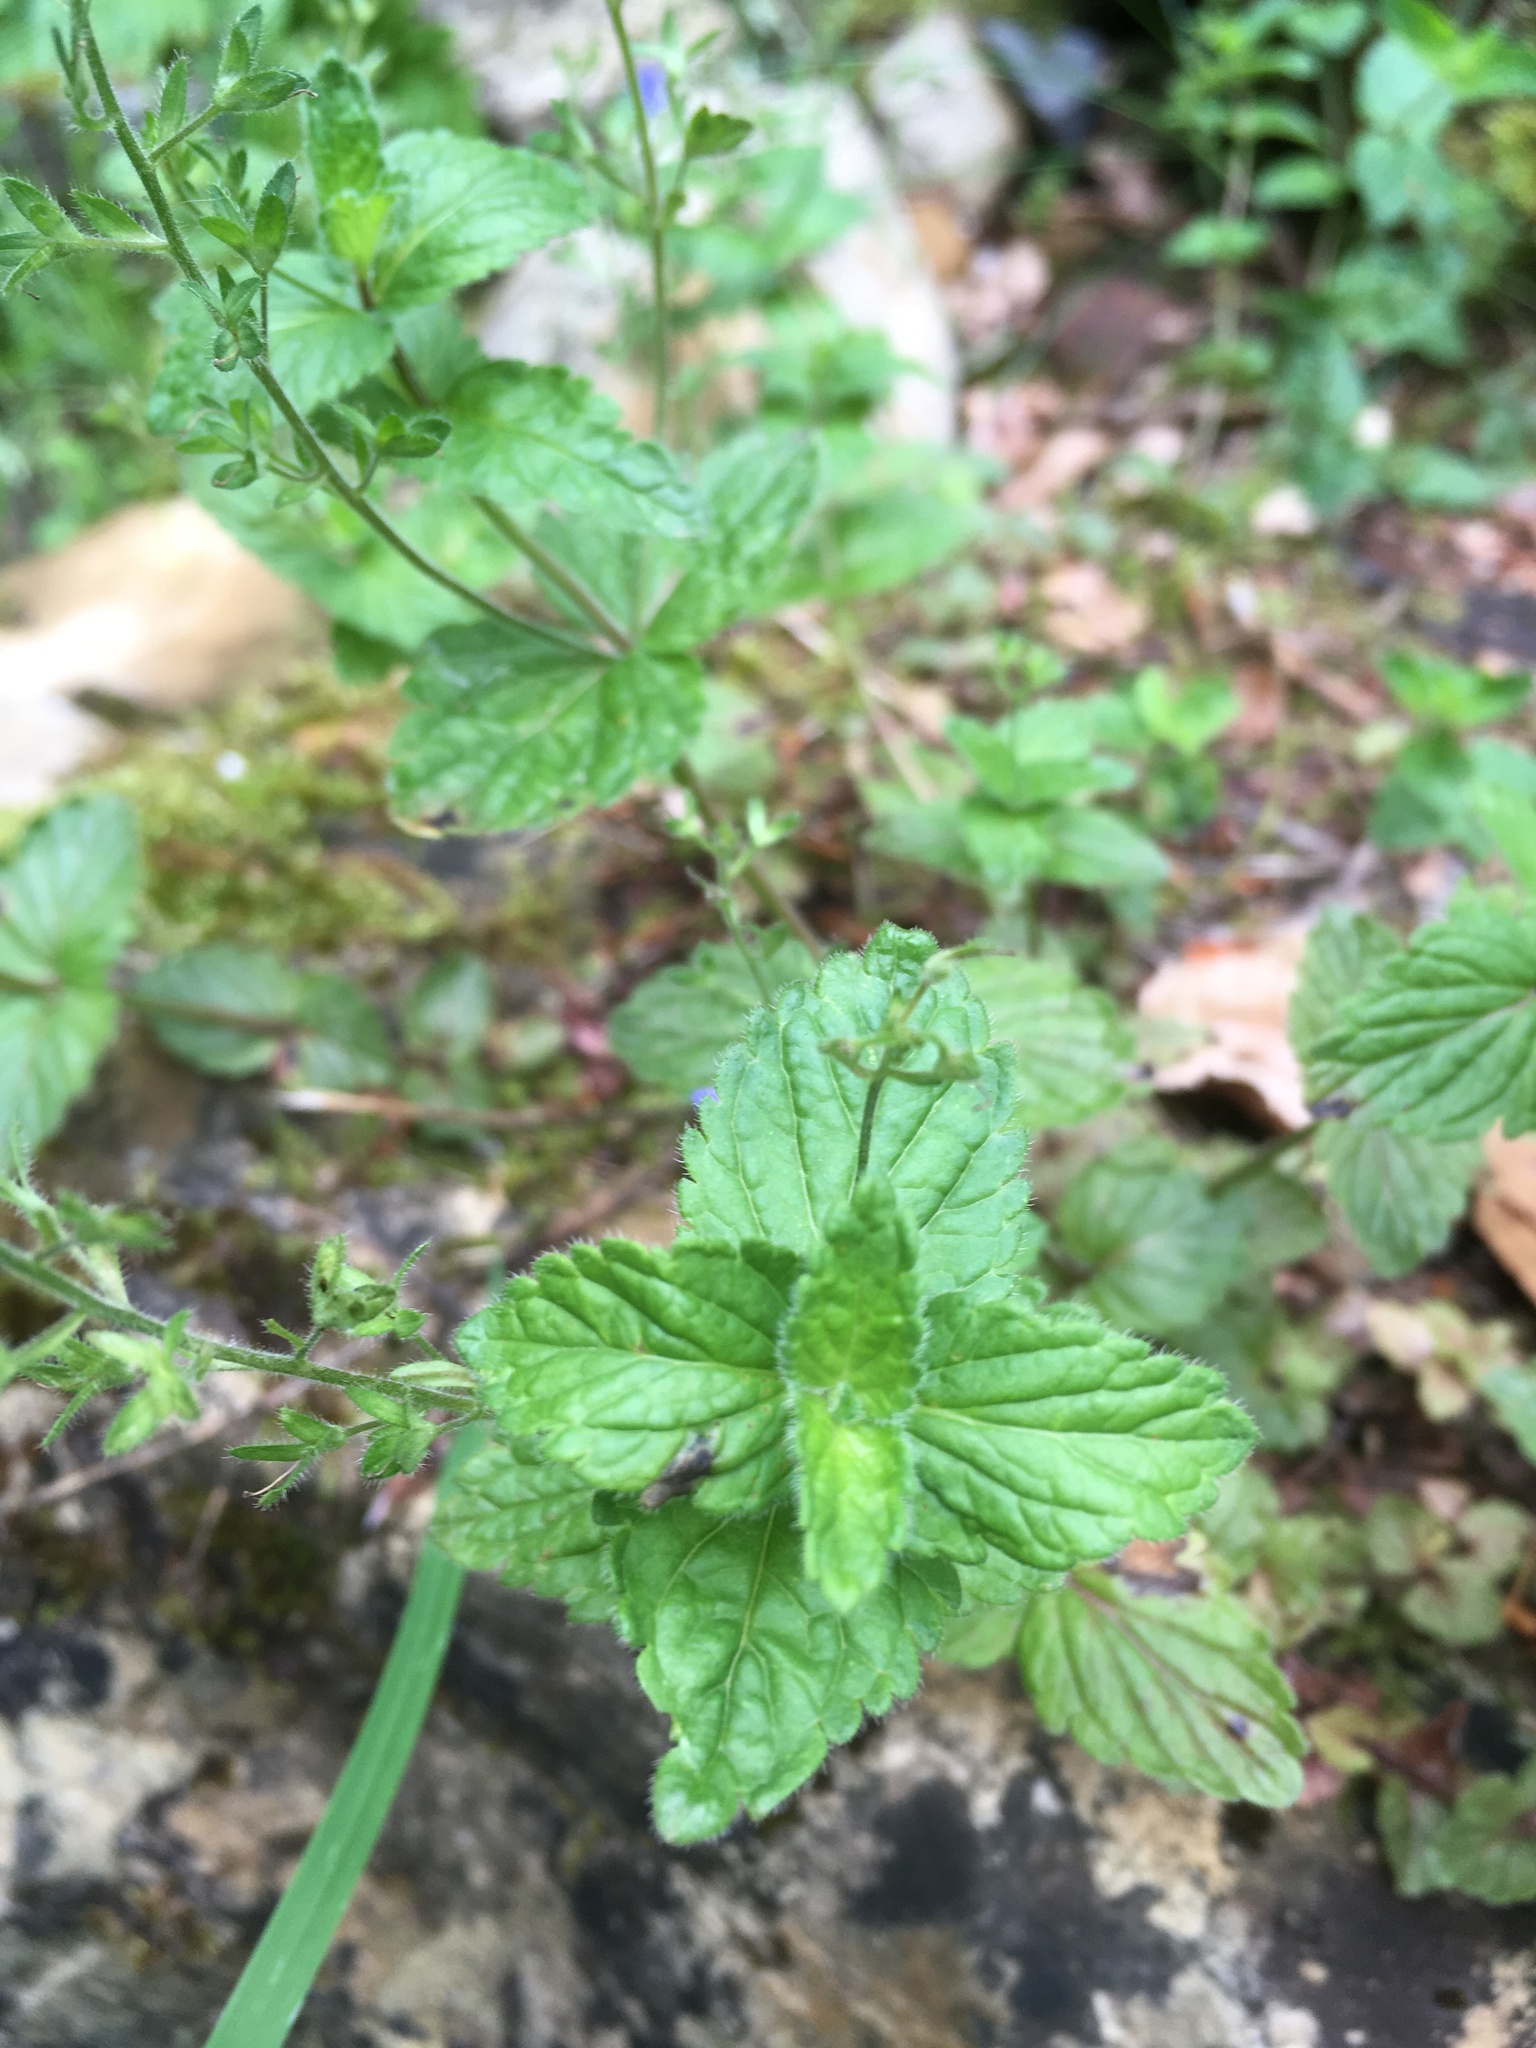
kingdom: Plantae
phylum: Tracheophyta
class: Magnoliopsida
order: Lamiales
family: Plantaginaceae
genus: Veronica
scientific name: Veronica chamaedrys
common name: Germander speedwell
